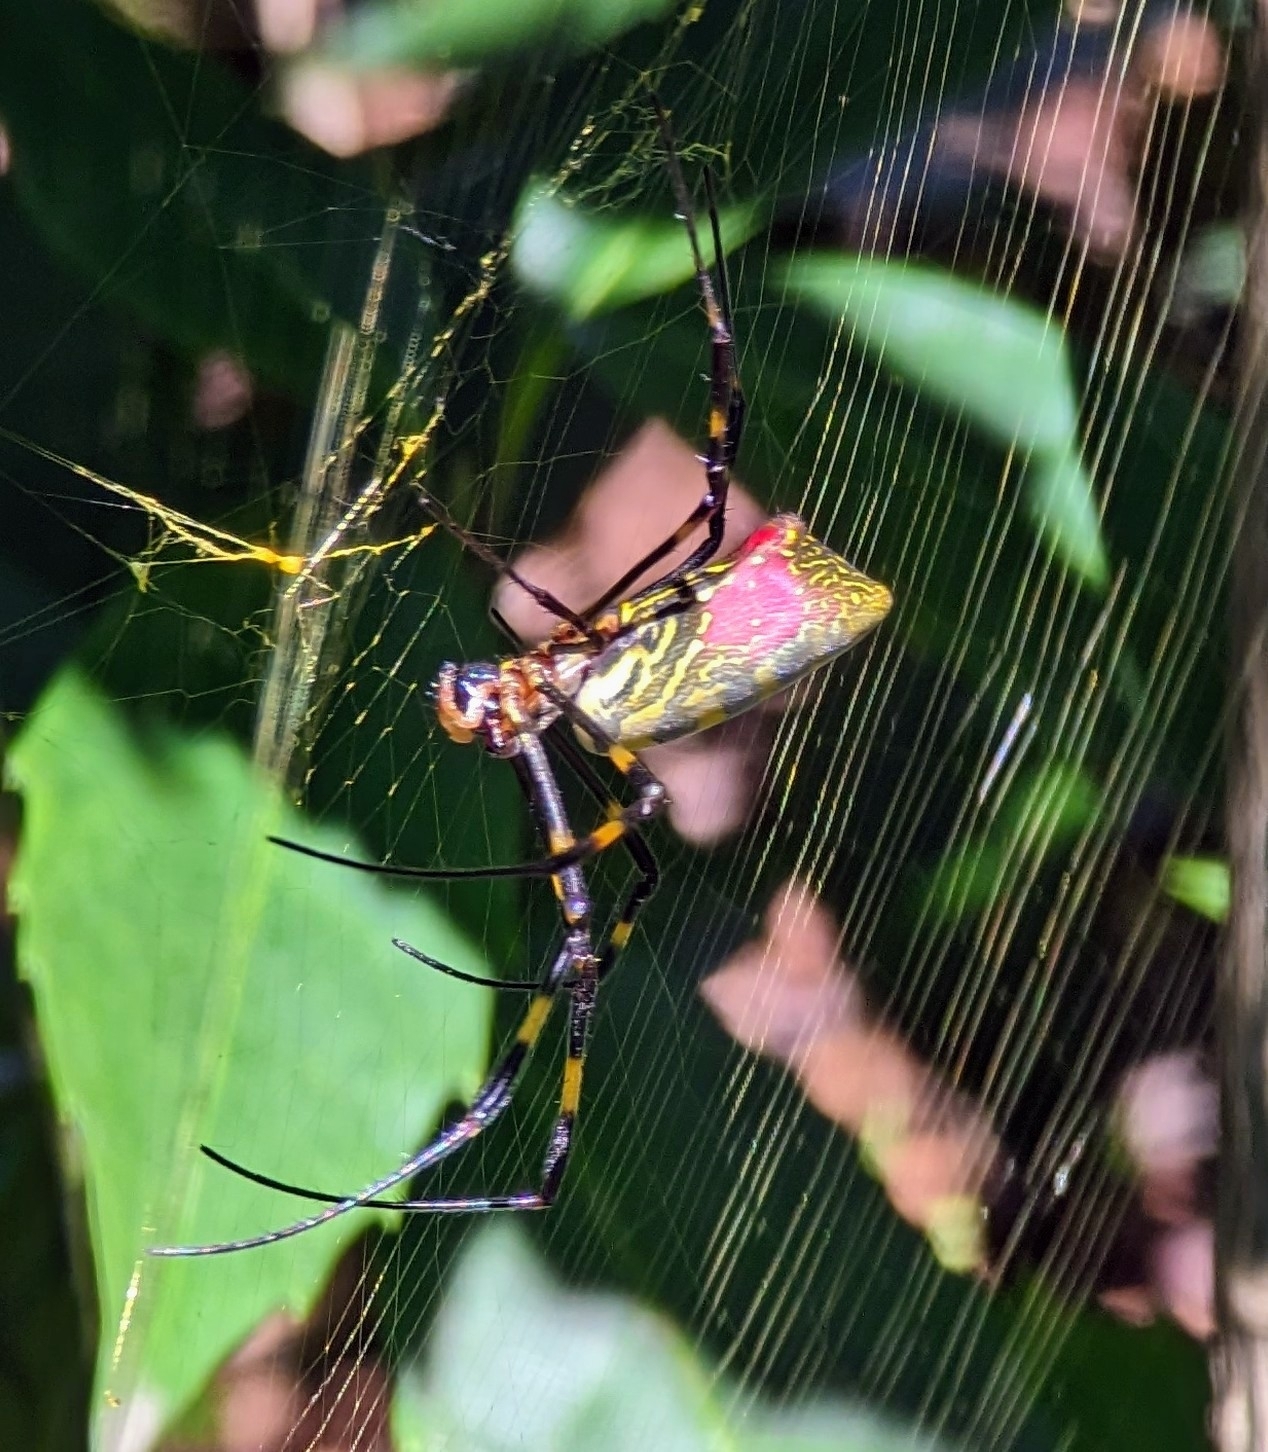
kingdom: Animalia
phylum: Arthropoda
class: Arachnida
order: Araneae
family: Araneidae
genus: Trichonephila
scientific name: Trichonephila clavata
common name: Jorō spider
